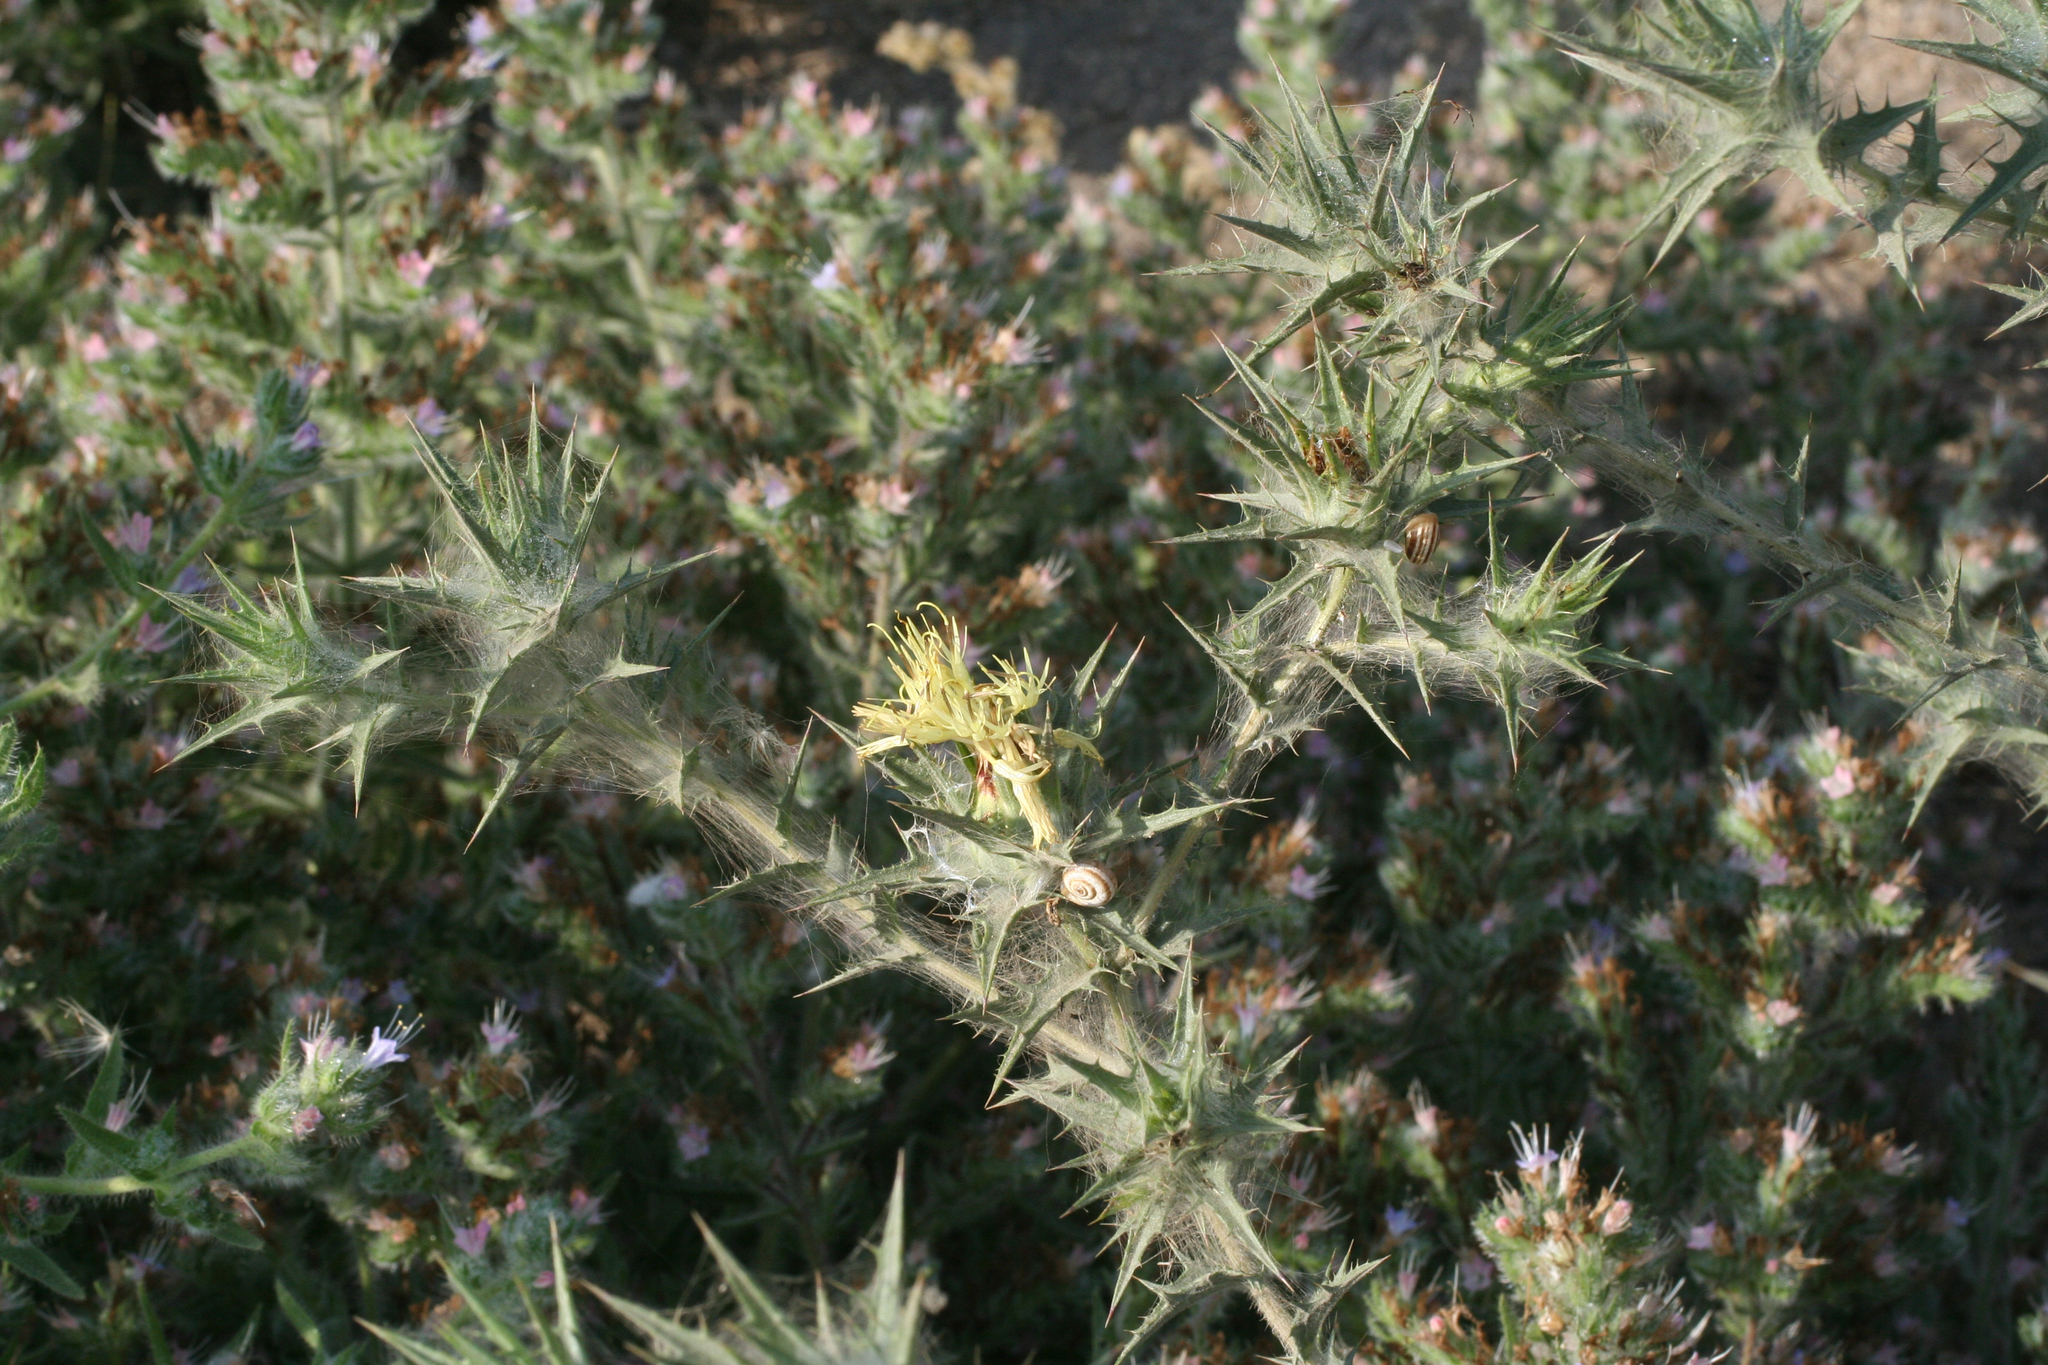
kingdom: Plantae
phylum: Tracheophyta
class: Magnoliopsida
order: Asterales
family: Asteraceae
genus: Carthamus
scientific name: Carthamus lanatus
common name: Downy safflower
